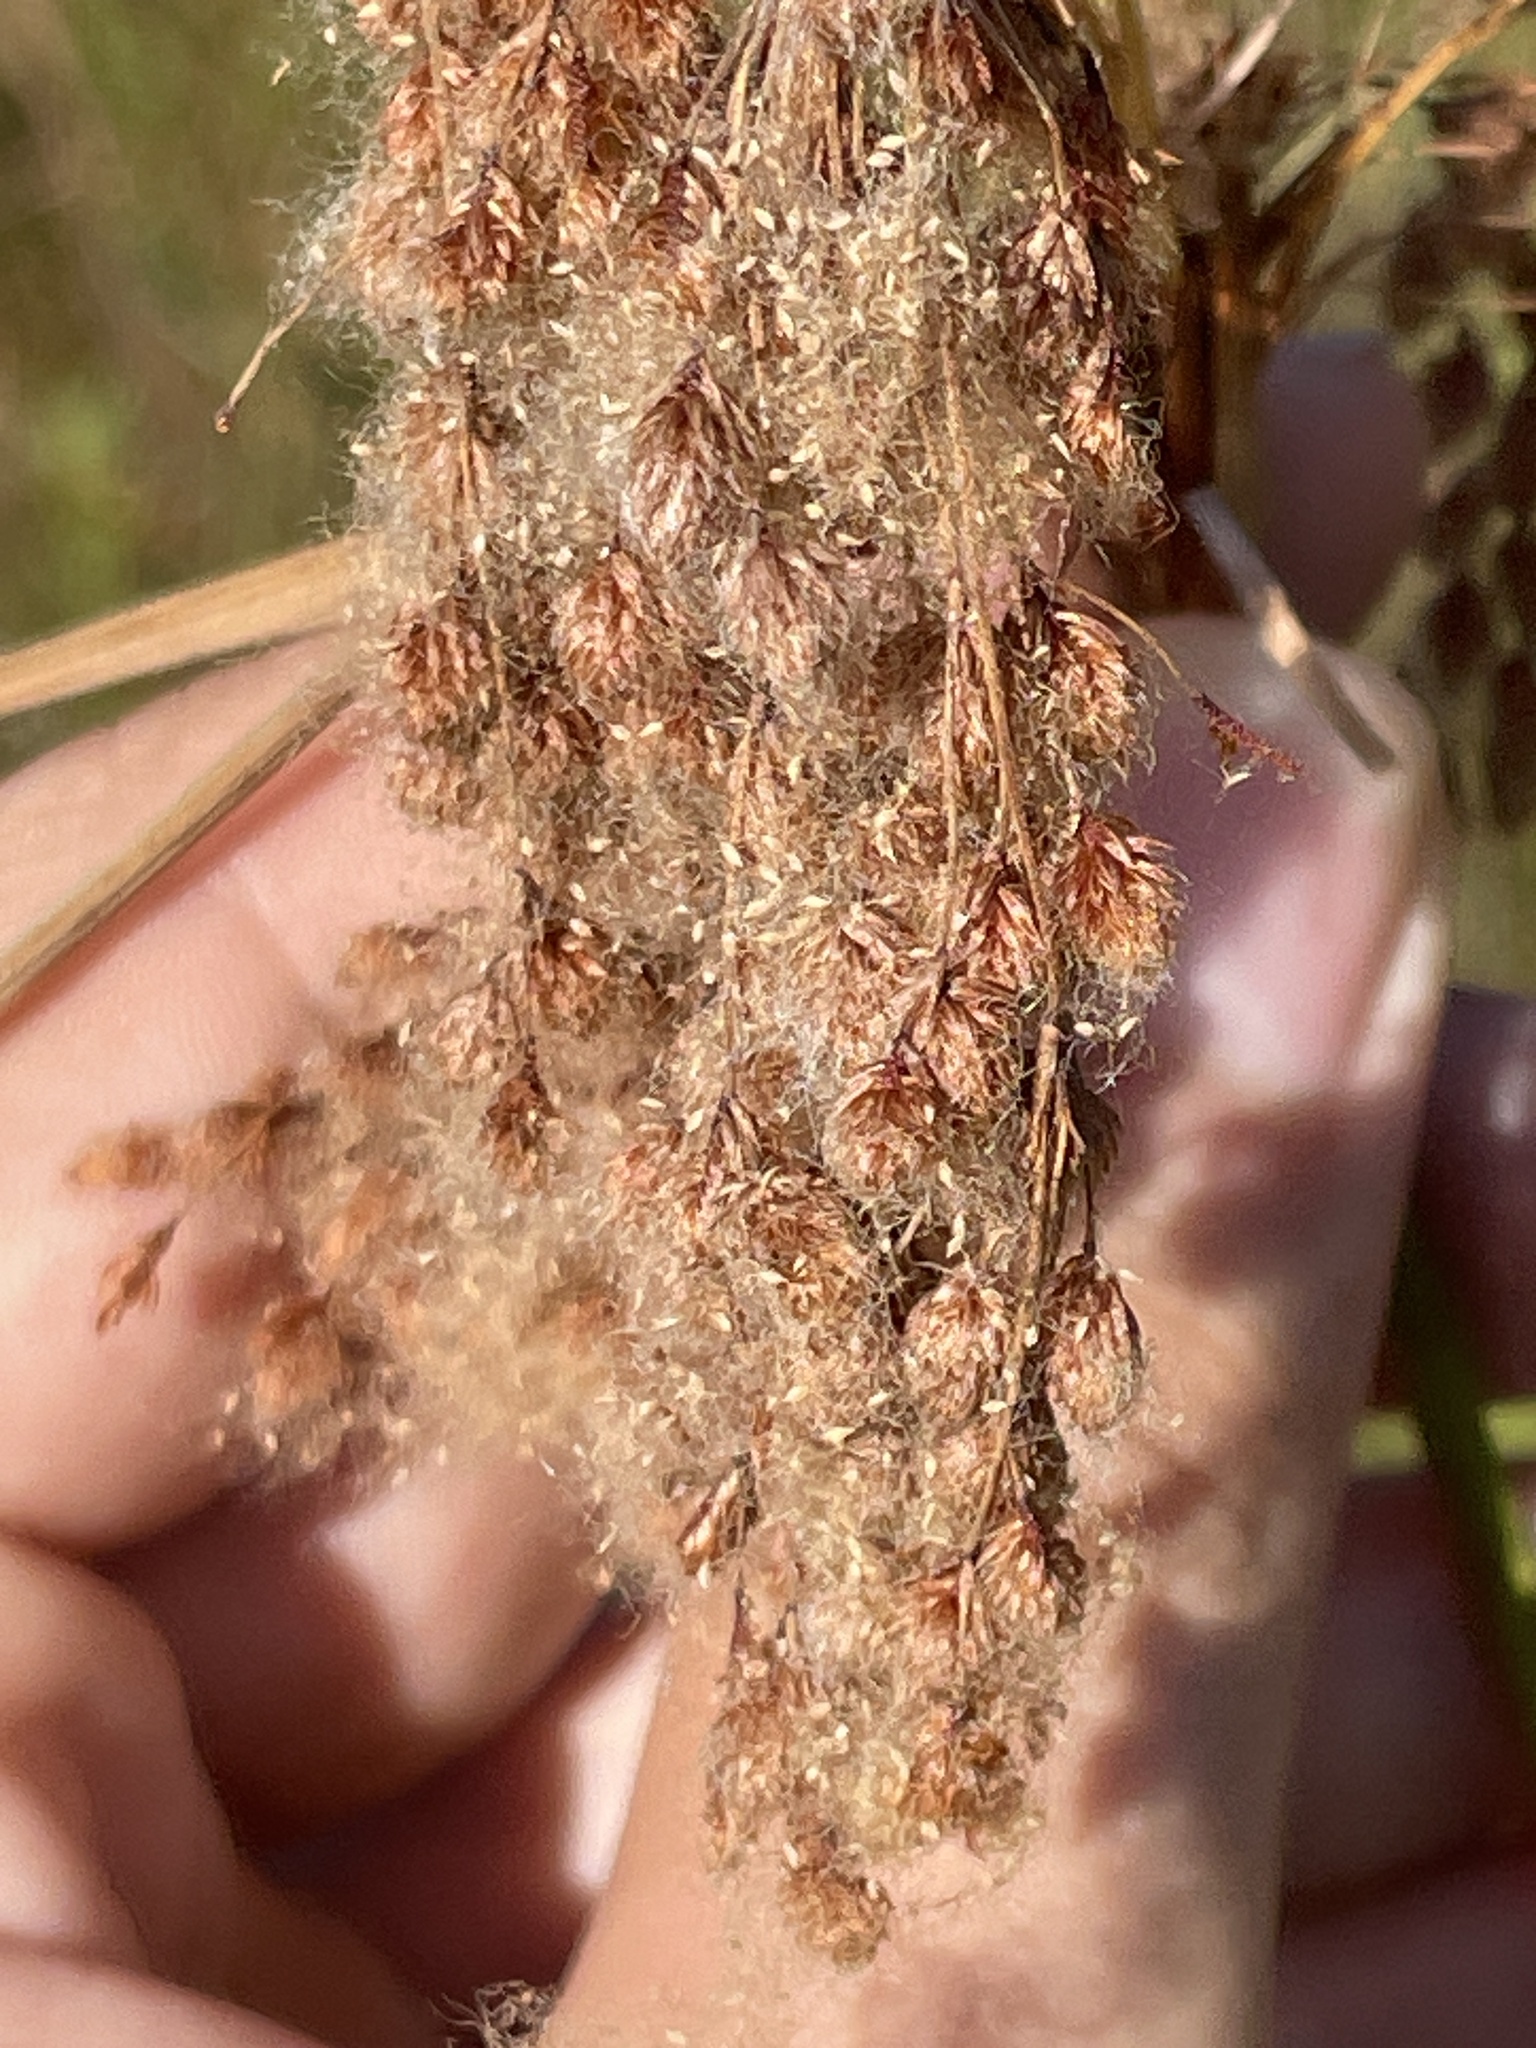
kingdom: Plantae
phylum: Tracheophyta
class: Liliopsida
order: Poales
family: Cyperaceae
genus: Scirpus
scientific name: Scirpus cyperinus
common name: Black-sheathed bulrush
